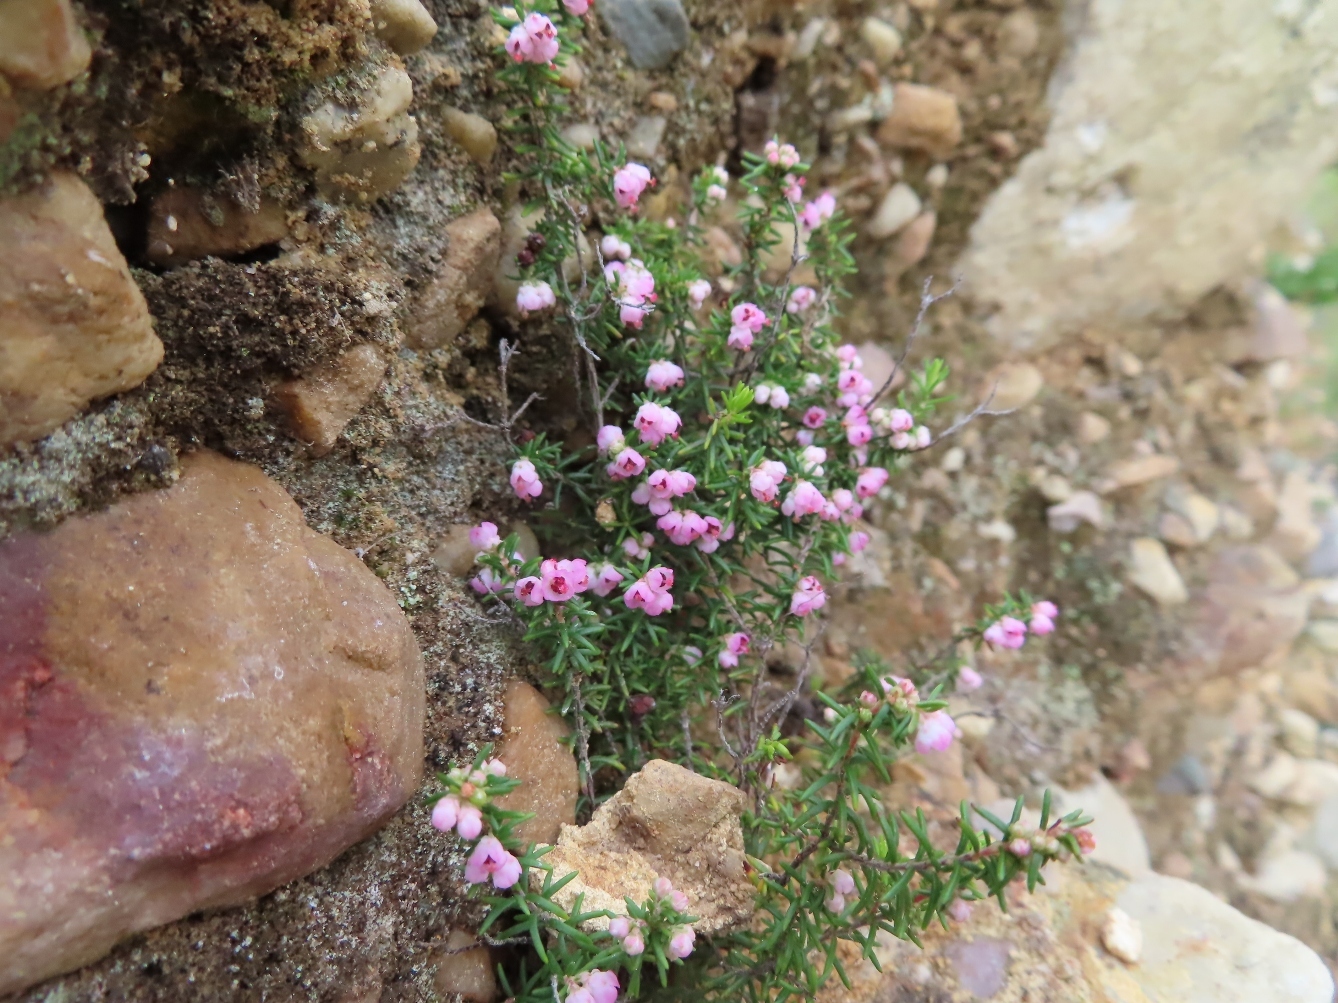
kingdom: Plantae
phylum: Tracheophyta
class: Magnoliopsida
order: Ericales
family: Ericaceae
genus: Erica
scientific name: Erica cristiflora
